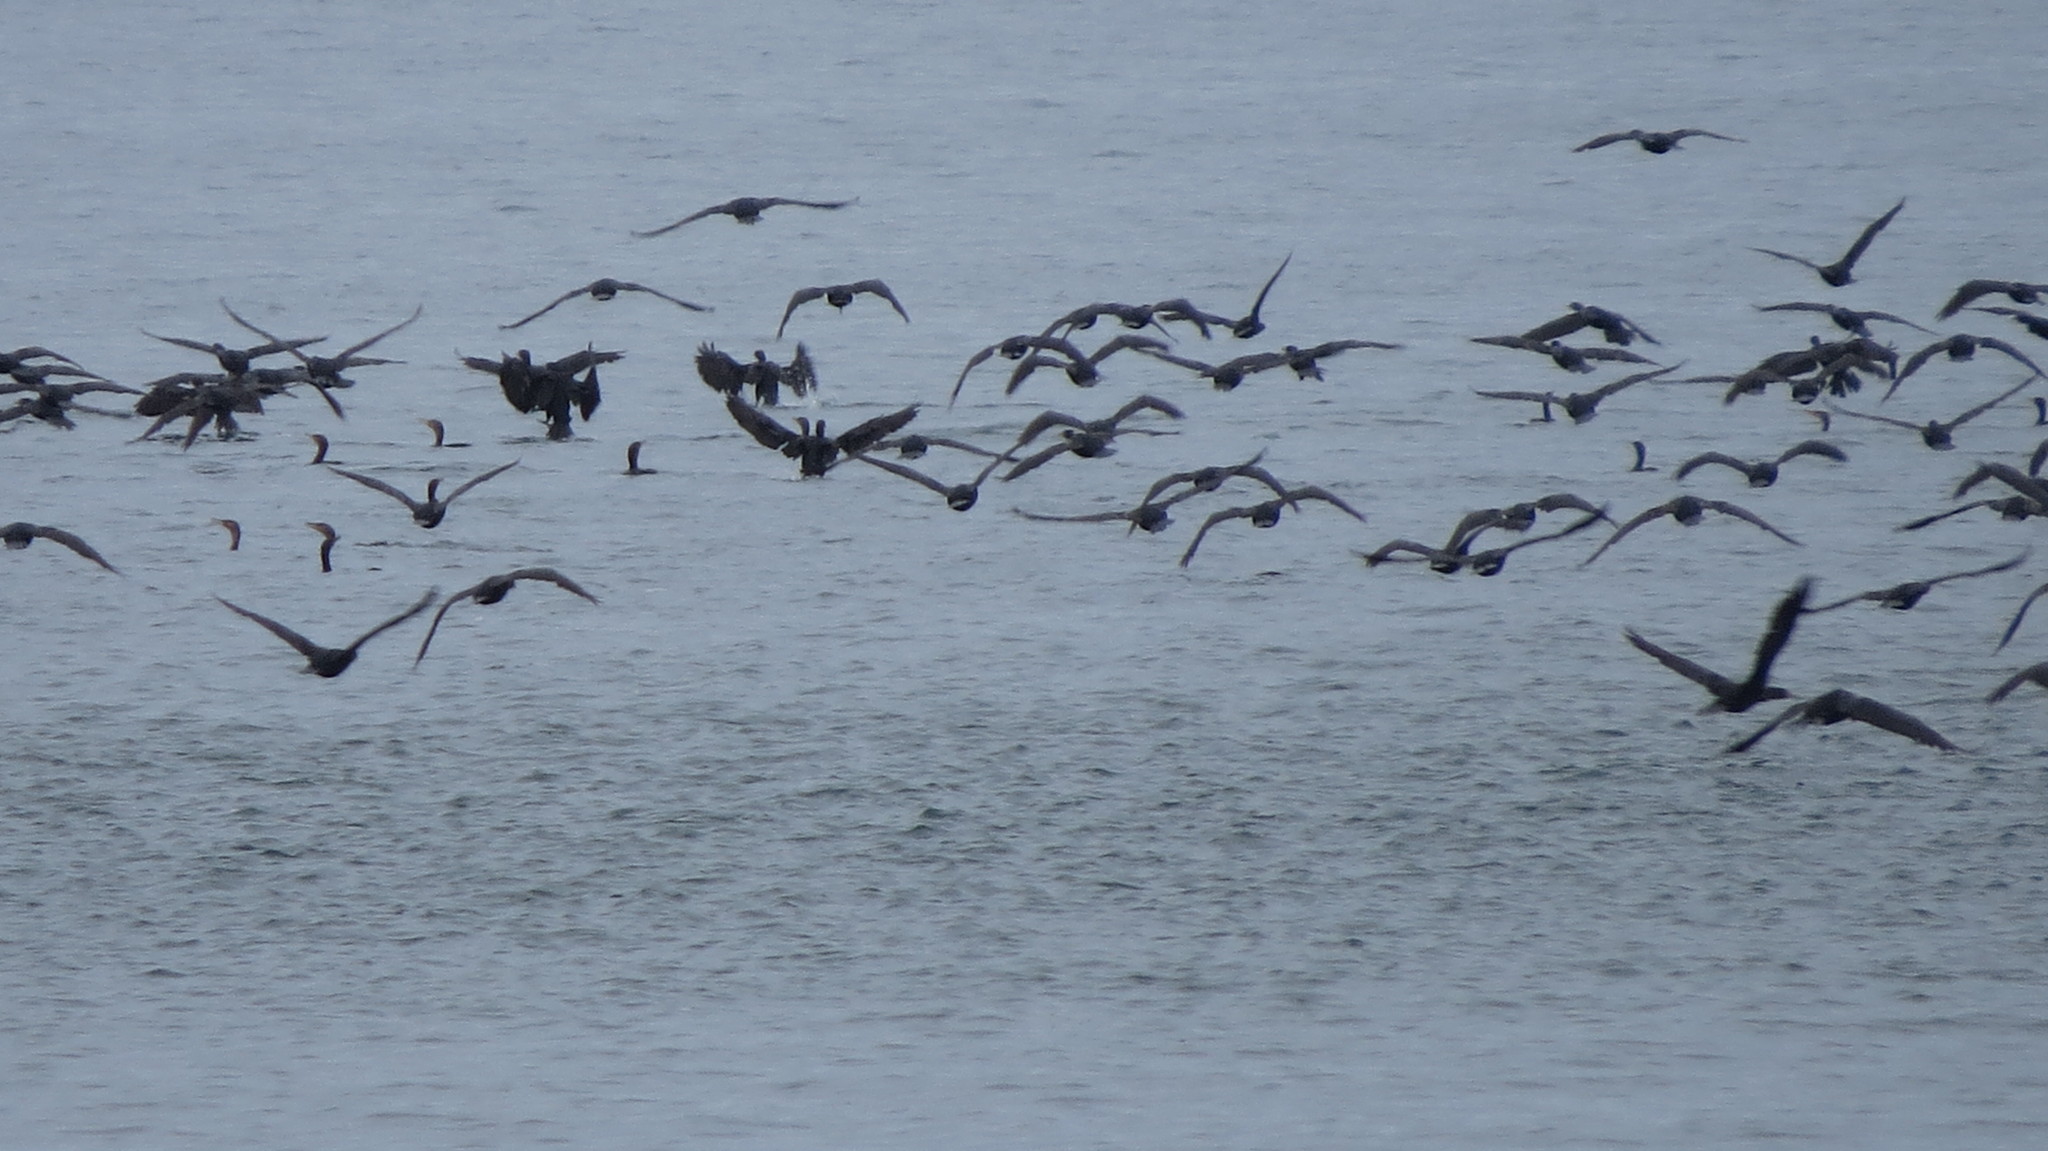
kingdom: Animalia
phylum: Chordata
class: Aves
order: Suliformes
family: Phalacrocoracidae
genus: Phalacrocorax
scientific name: Phalacrocorax auritus
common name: Double-crested cormorant
